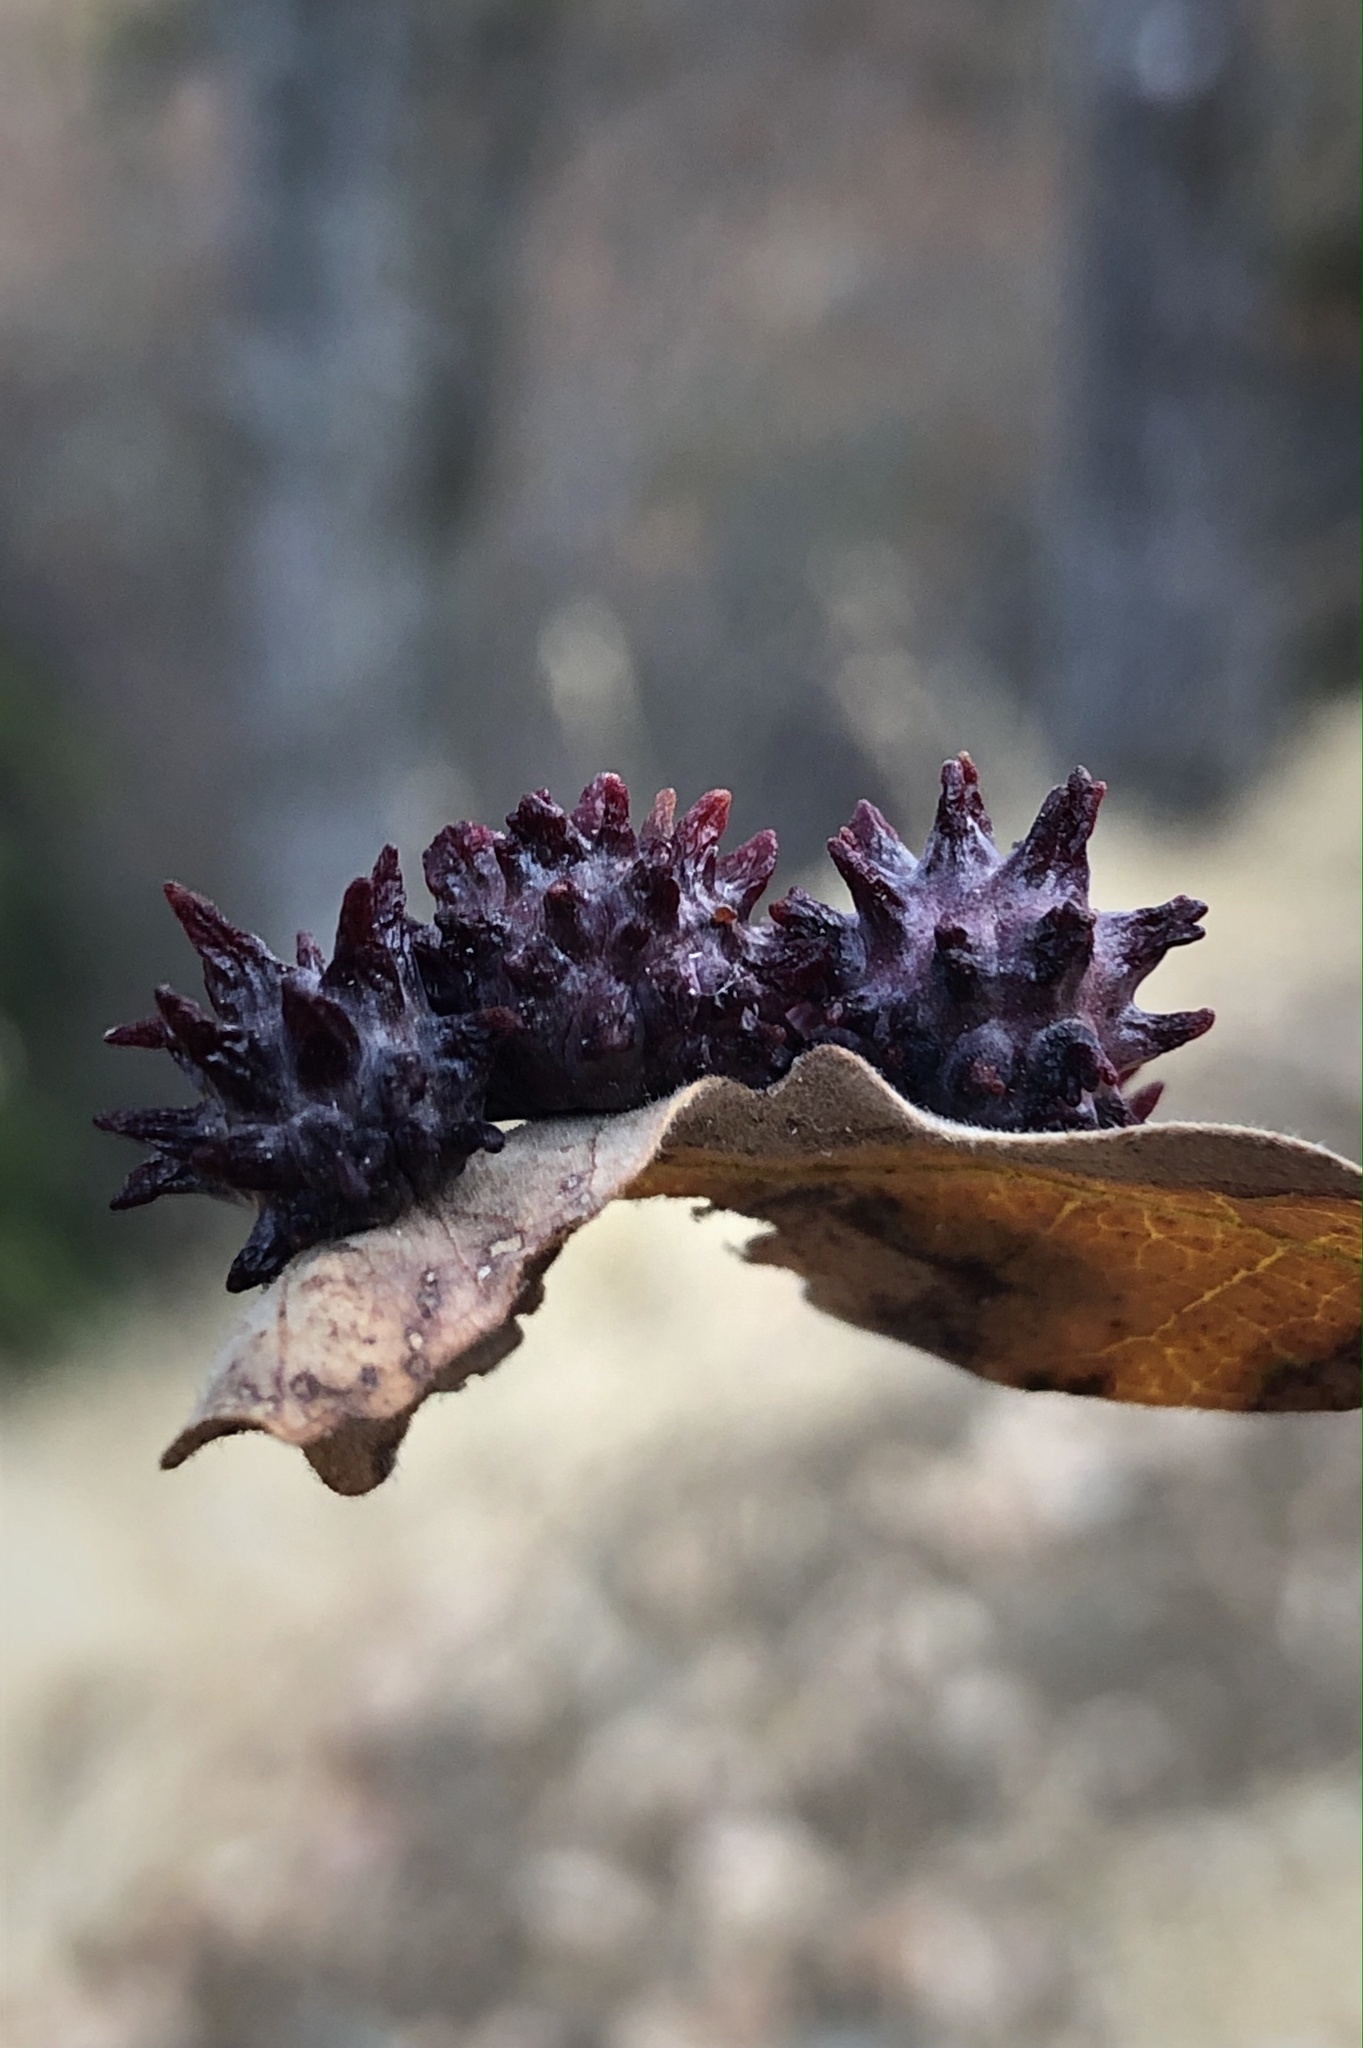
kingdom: Animalia
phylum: Arthropoda
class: Insecta
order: Hymenoptera
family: Cynipidae
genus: Cynips
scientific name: Cynips
